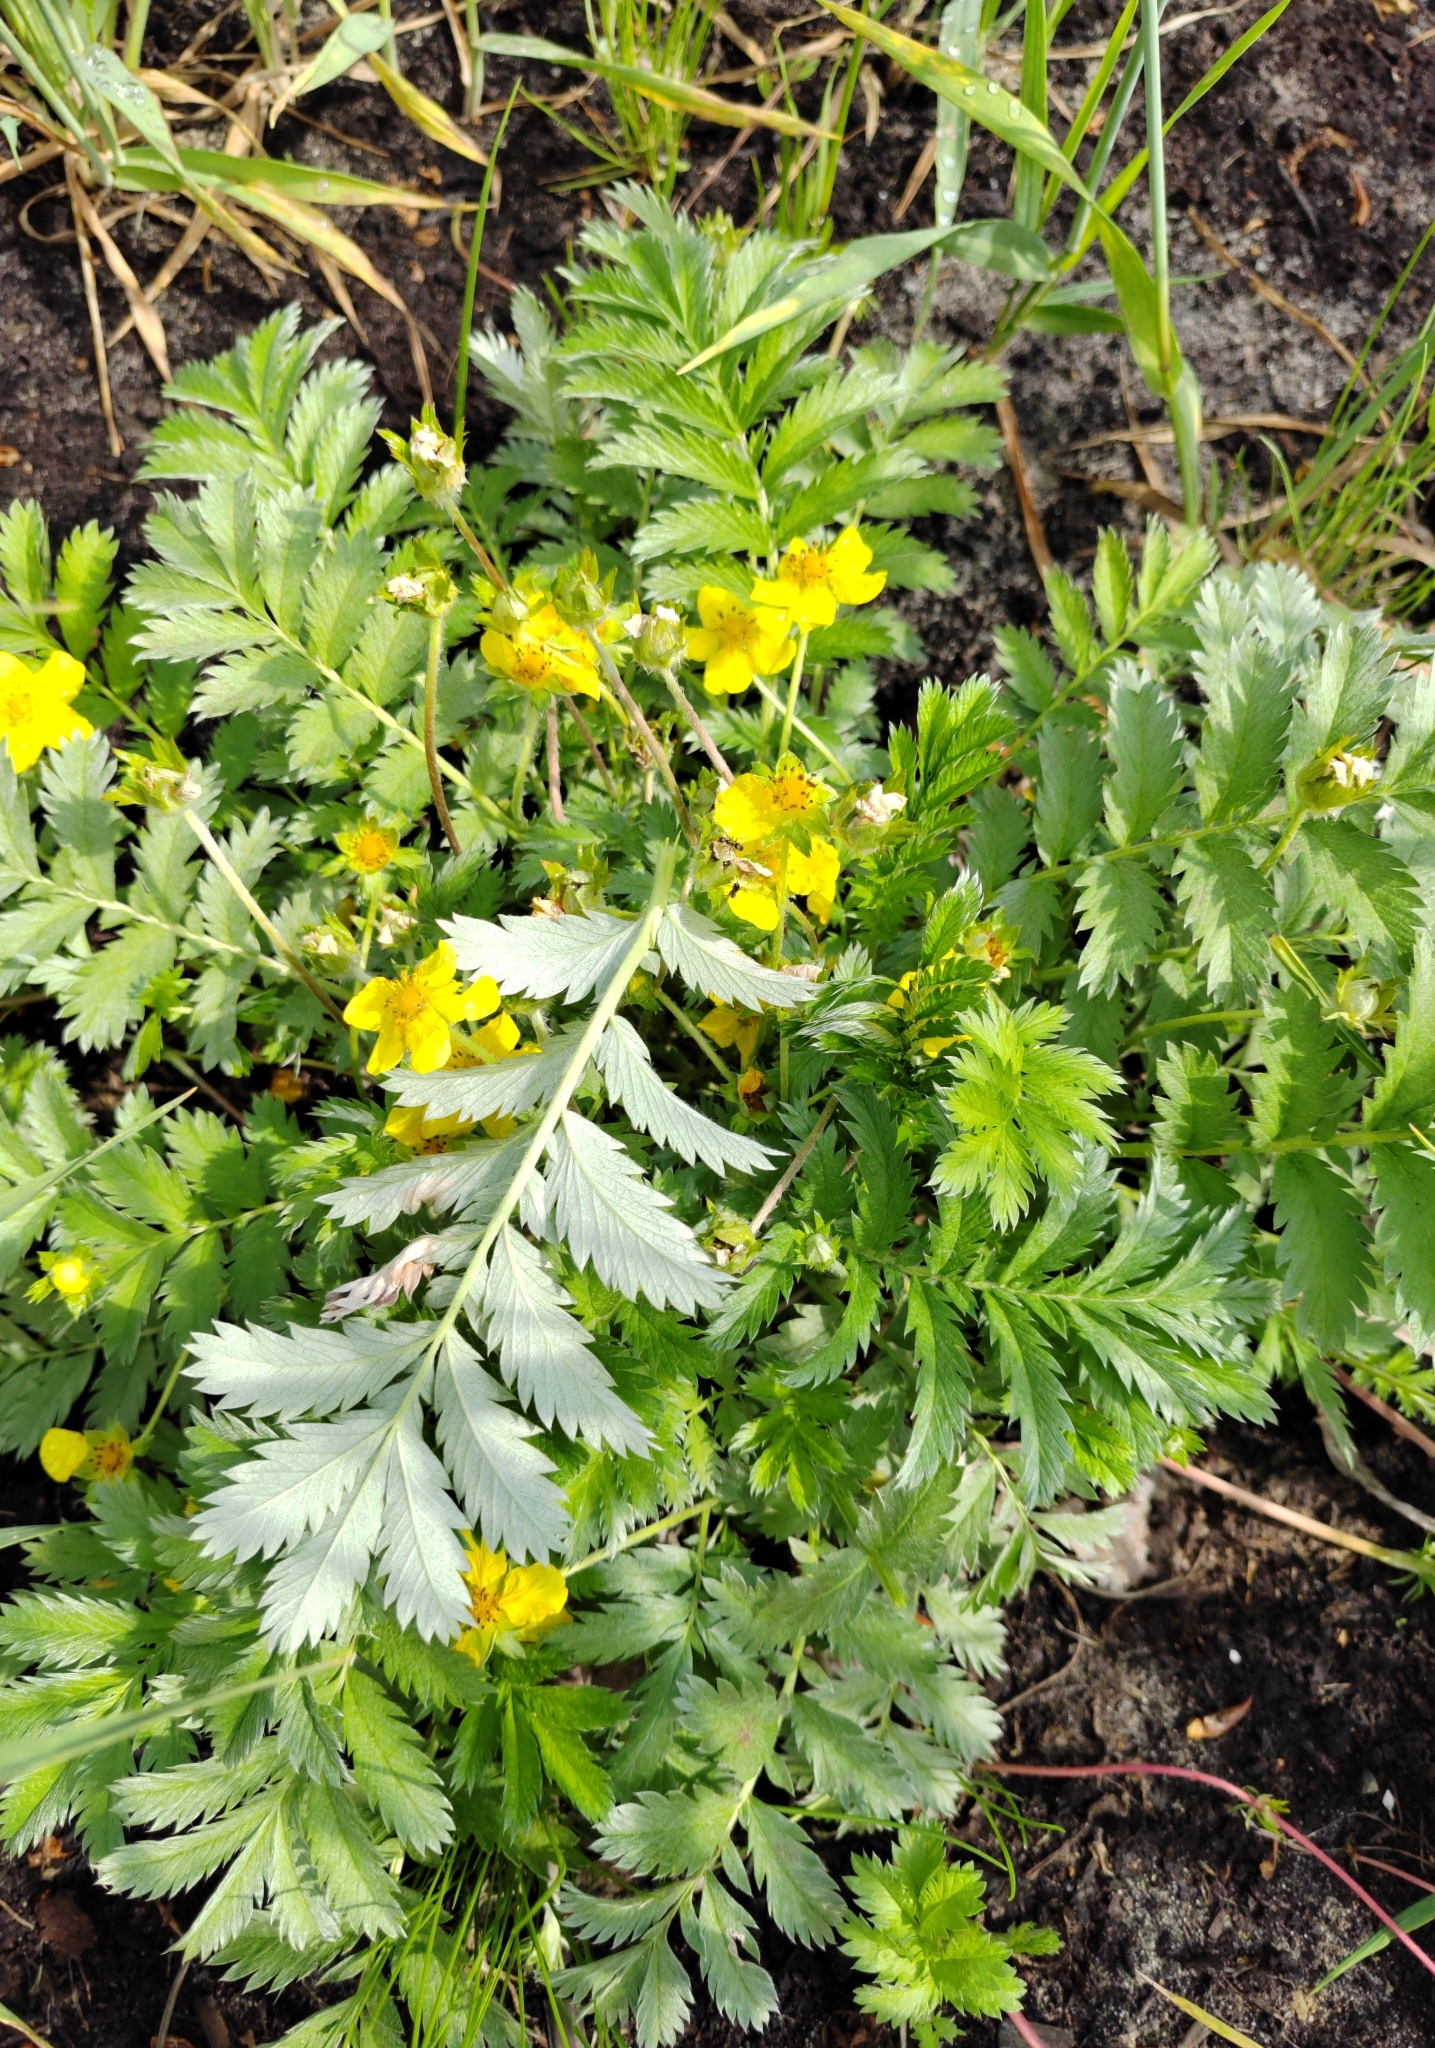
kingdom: Plantae
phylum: Tracheophyta
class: Magnoliopsida
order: Rosales
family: Rosaceae
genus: Argentina
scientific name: Argentina anserina
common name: Common silverweed
